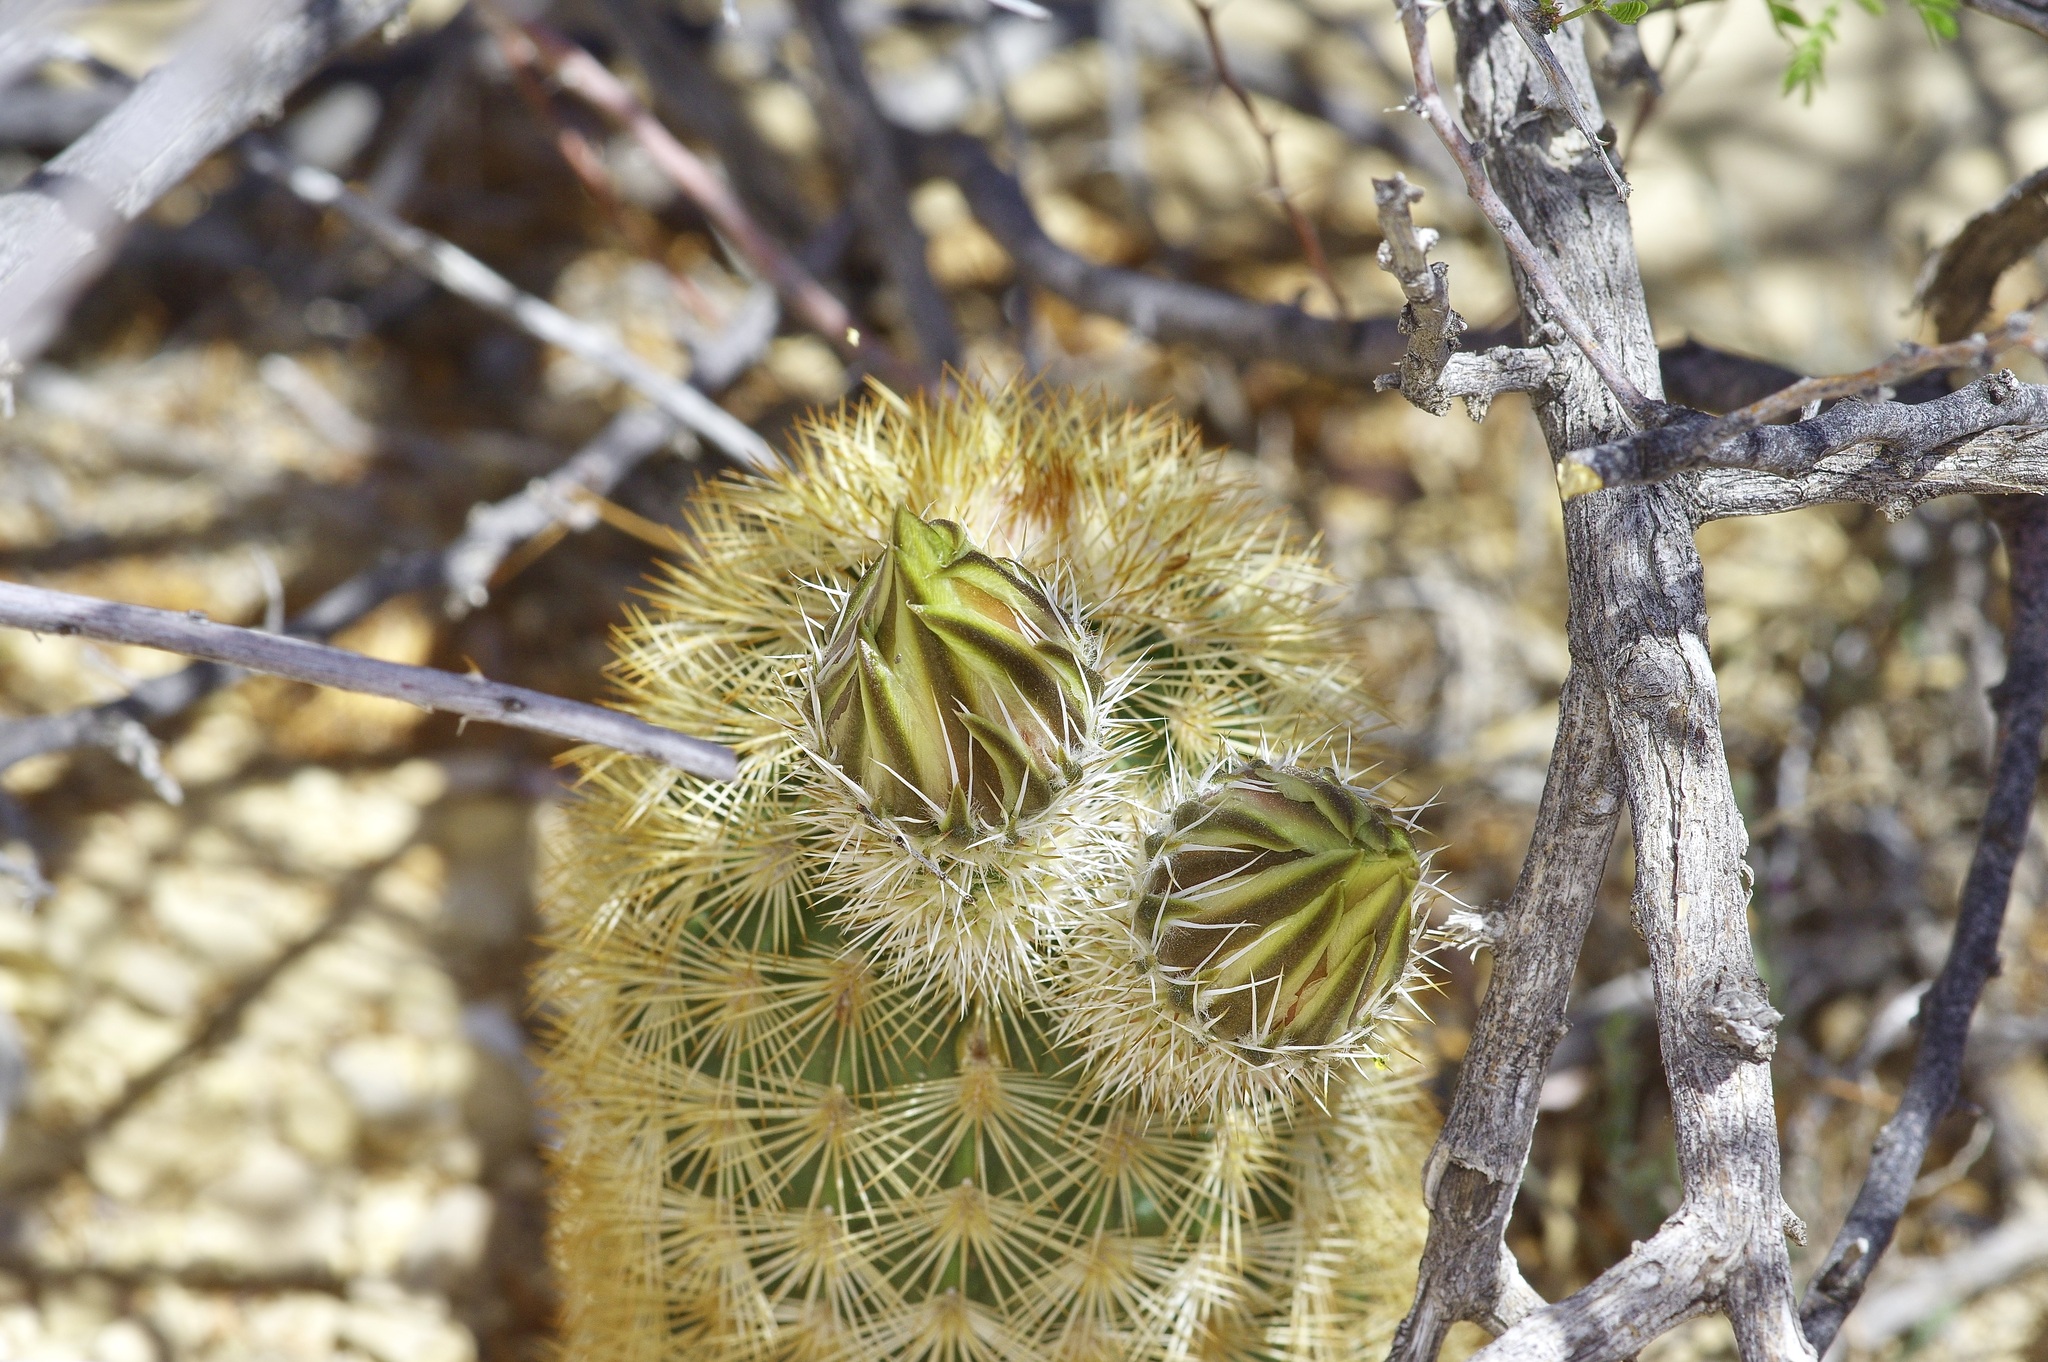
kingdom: Plantae
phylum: Tracheophyta
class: Magnoliopsida
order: Caryophyllales
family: Cactaceae
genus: Echinocereus
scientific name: Echinocereus dasyacanthus
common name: Spiny hedgehog cactus
